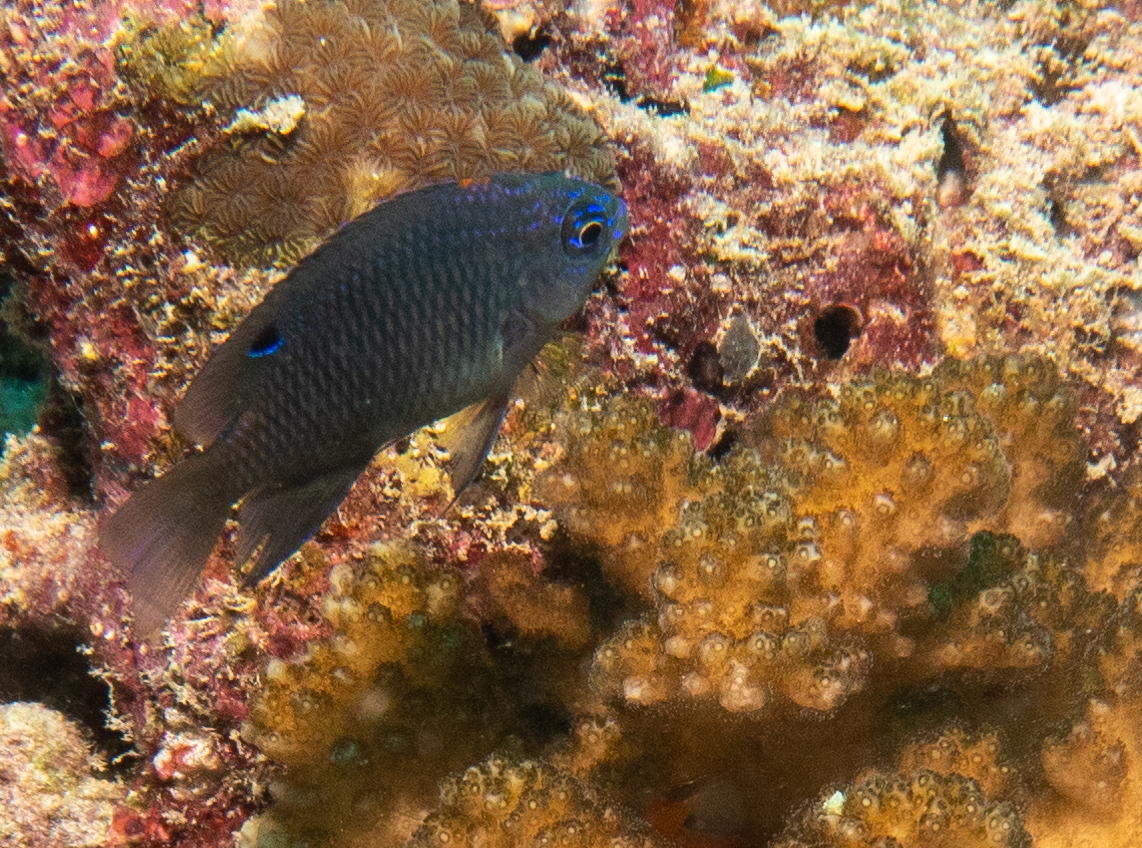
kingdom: Animalia
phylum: Chordata
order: Perciformes
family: Pomacentridae
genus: Pomacentrus
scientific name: Pomacentrus indicus
